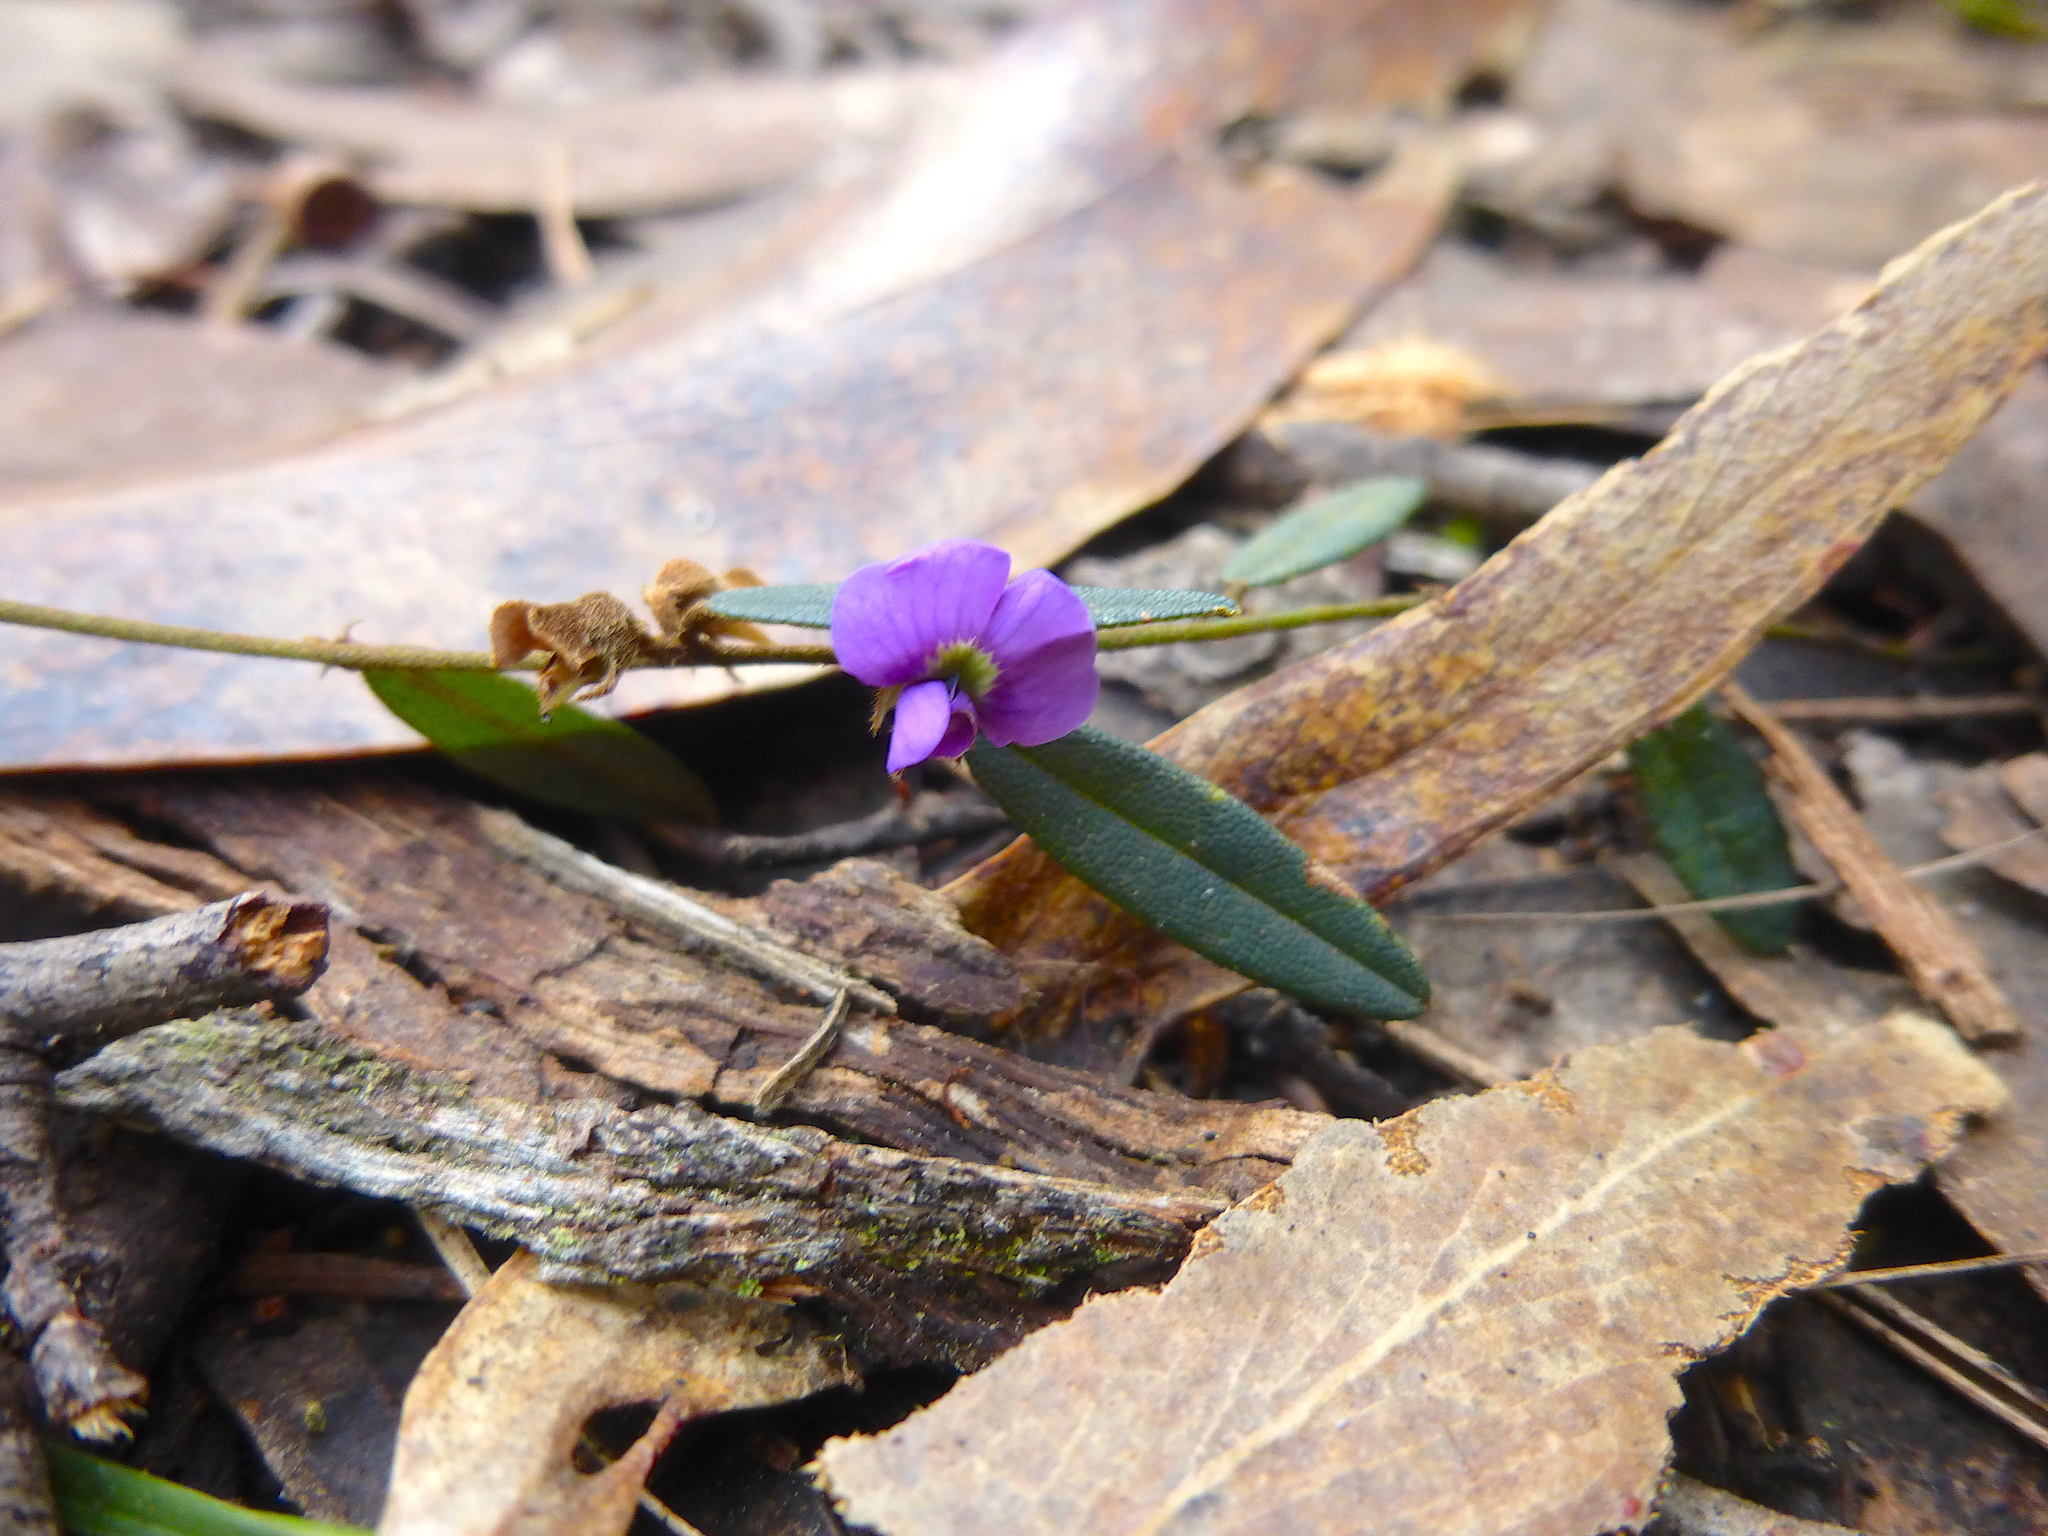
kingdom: Plantae
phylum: Tracheophyta
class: Magnoliopsida
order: Fabales
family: Fabaceae
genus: Hovea
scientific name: Hovea heterophylla
